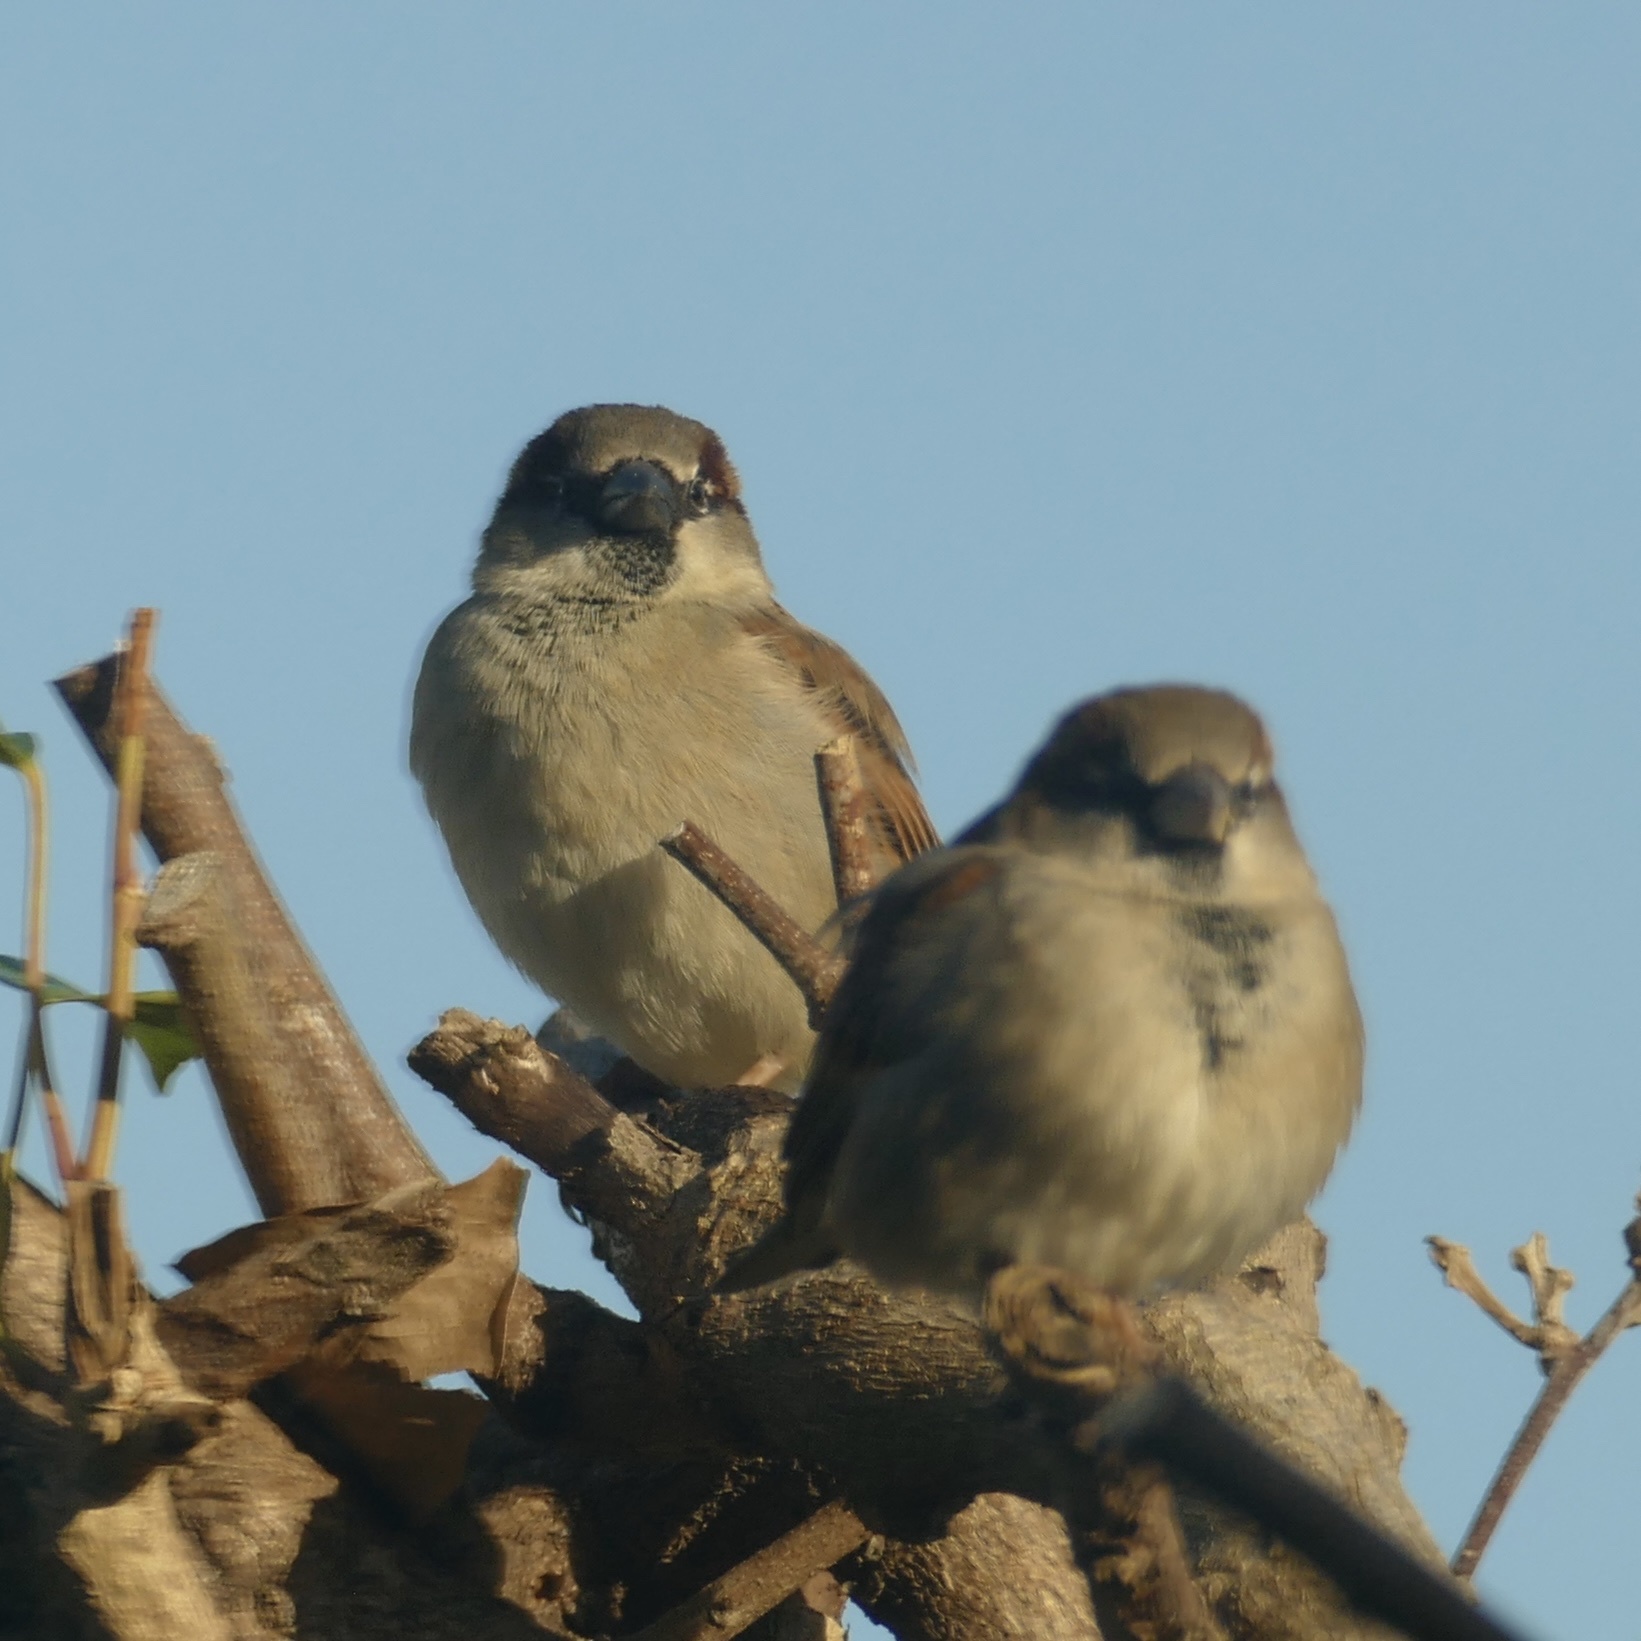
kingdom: Animalia
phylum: Chordata
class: Aves
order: Passeriformes
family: Passeridae
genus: Passer
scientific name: Passer domesticus
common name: House sparrow
